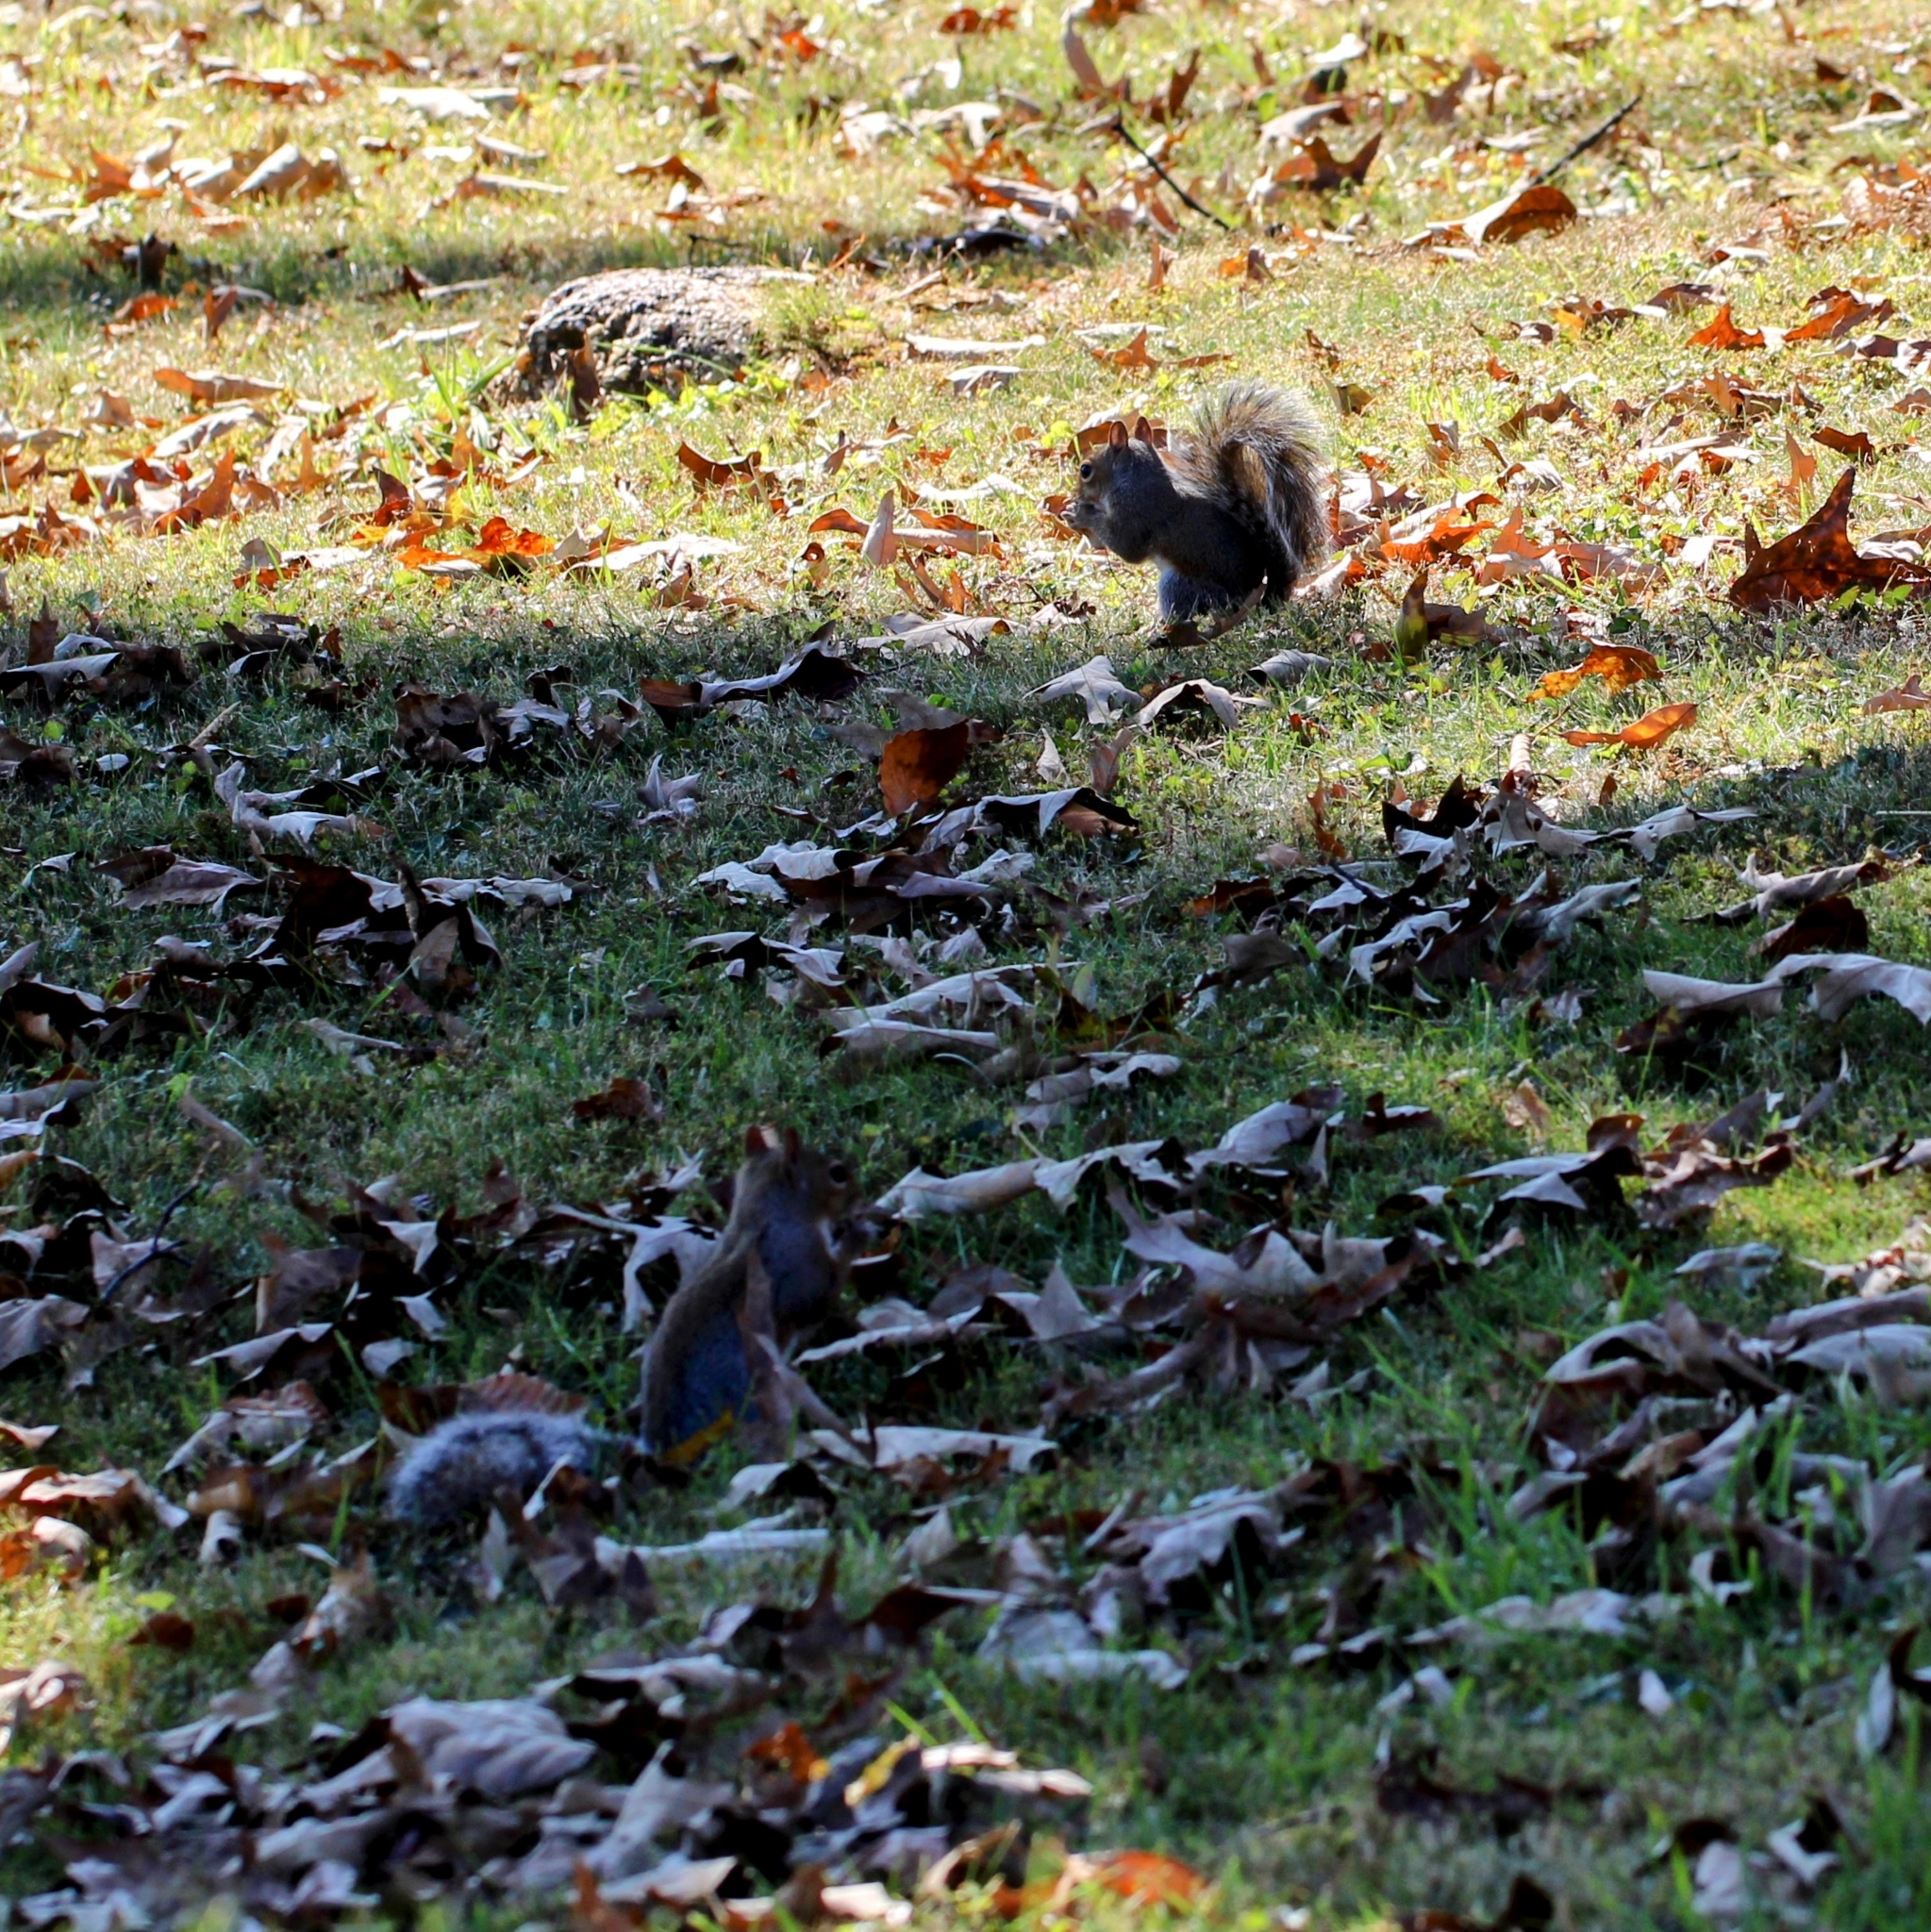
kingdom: Animalia
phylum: Chordata
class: Mammalia
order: Rodentia
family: Sciuridae
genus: Sciurus
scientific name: Sciurus carolinensis
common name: Eastern gray squirrel
